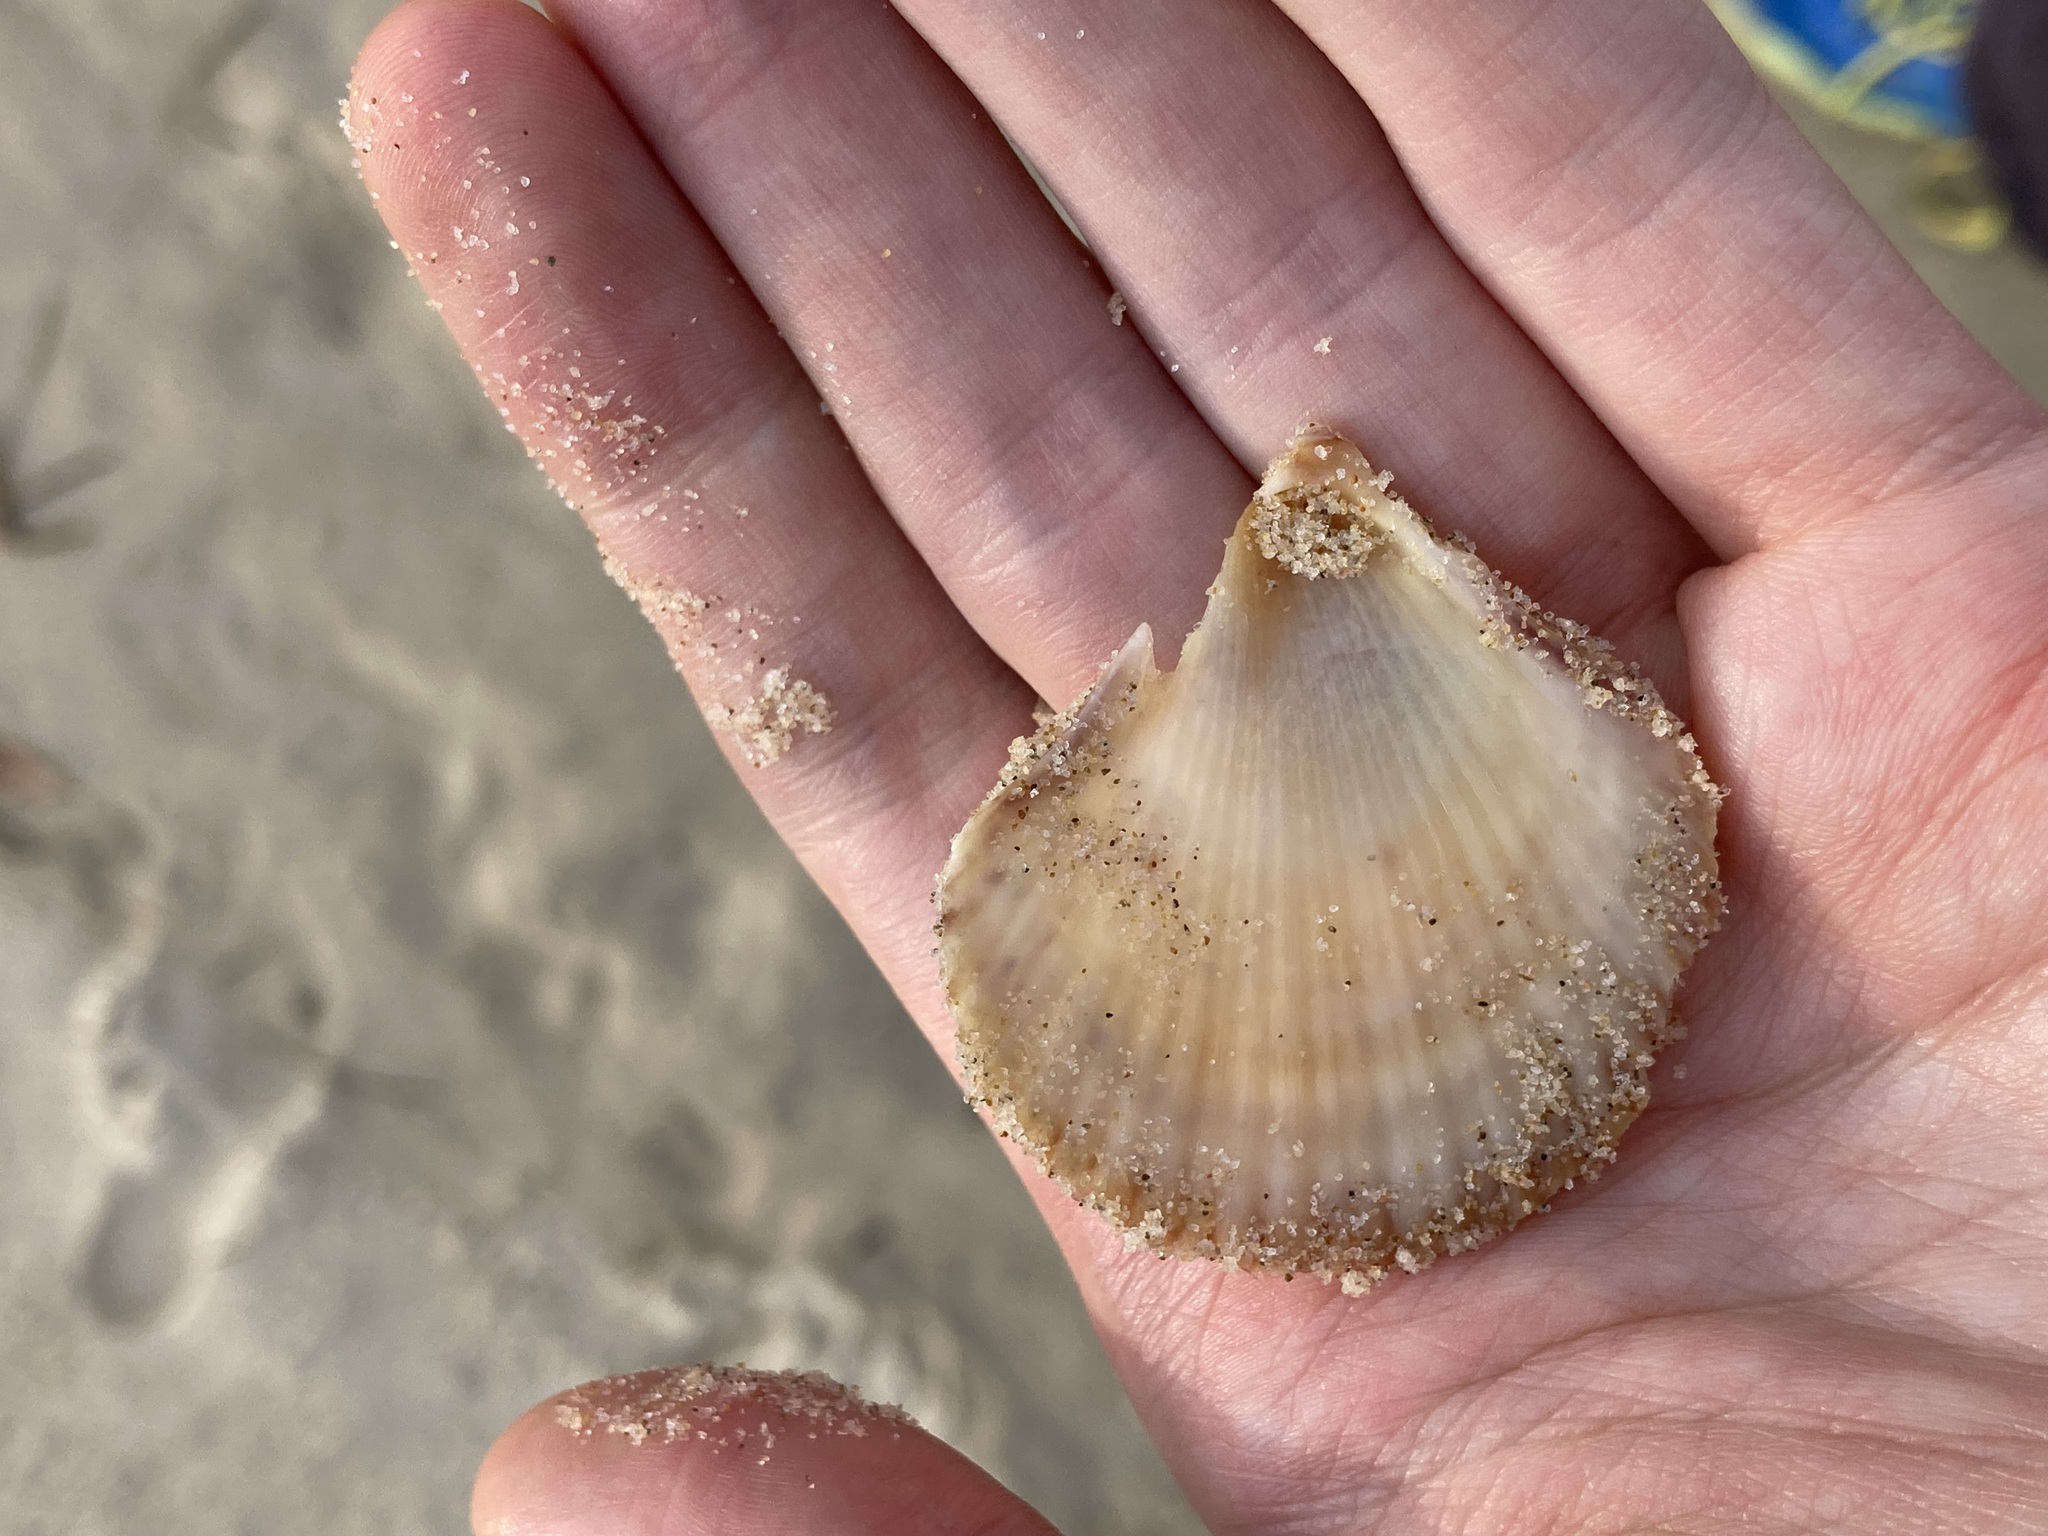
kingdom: Animalia
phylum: Mollusca
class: Bivalvia
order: Pectinida
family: Pectinidae
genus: Scaeochlamys
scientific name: Scaeochlamys livida
